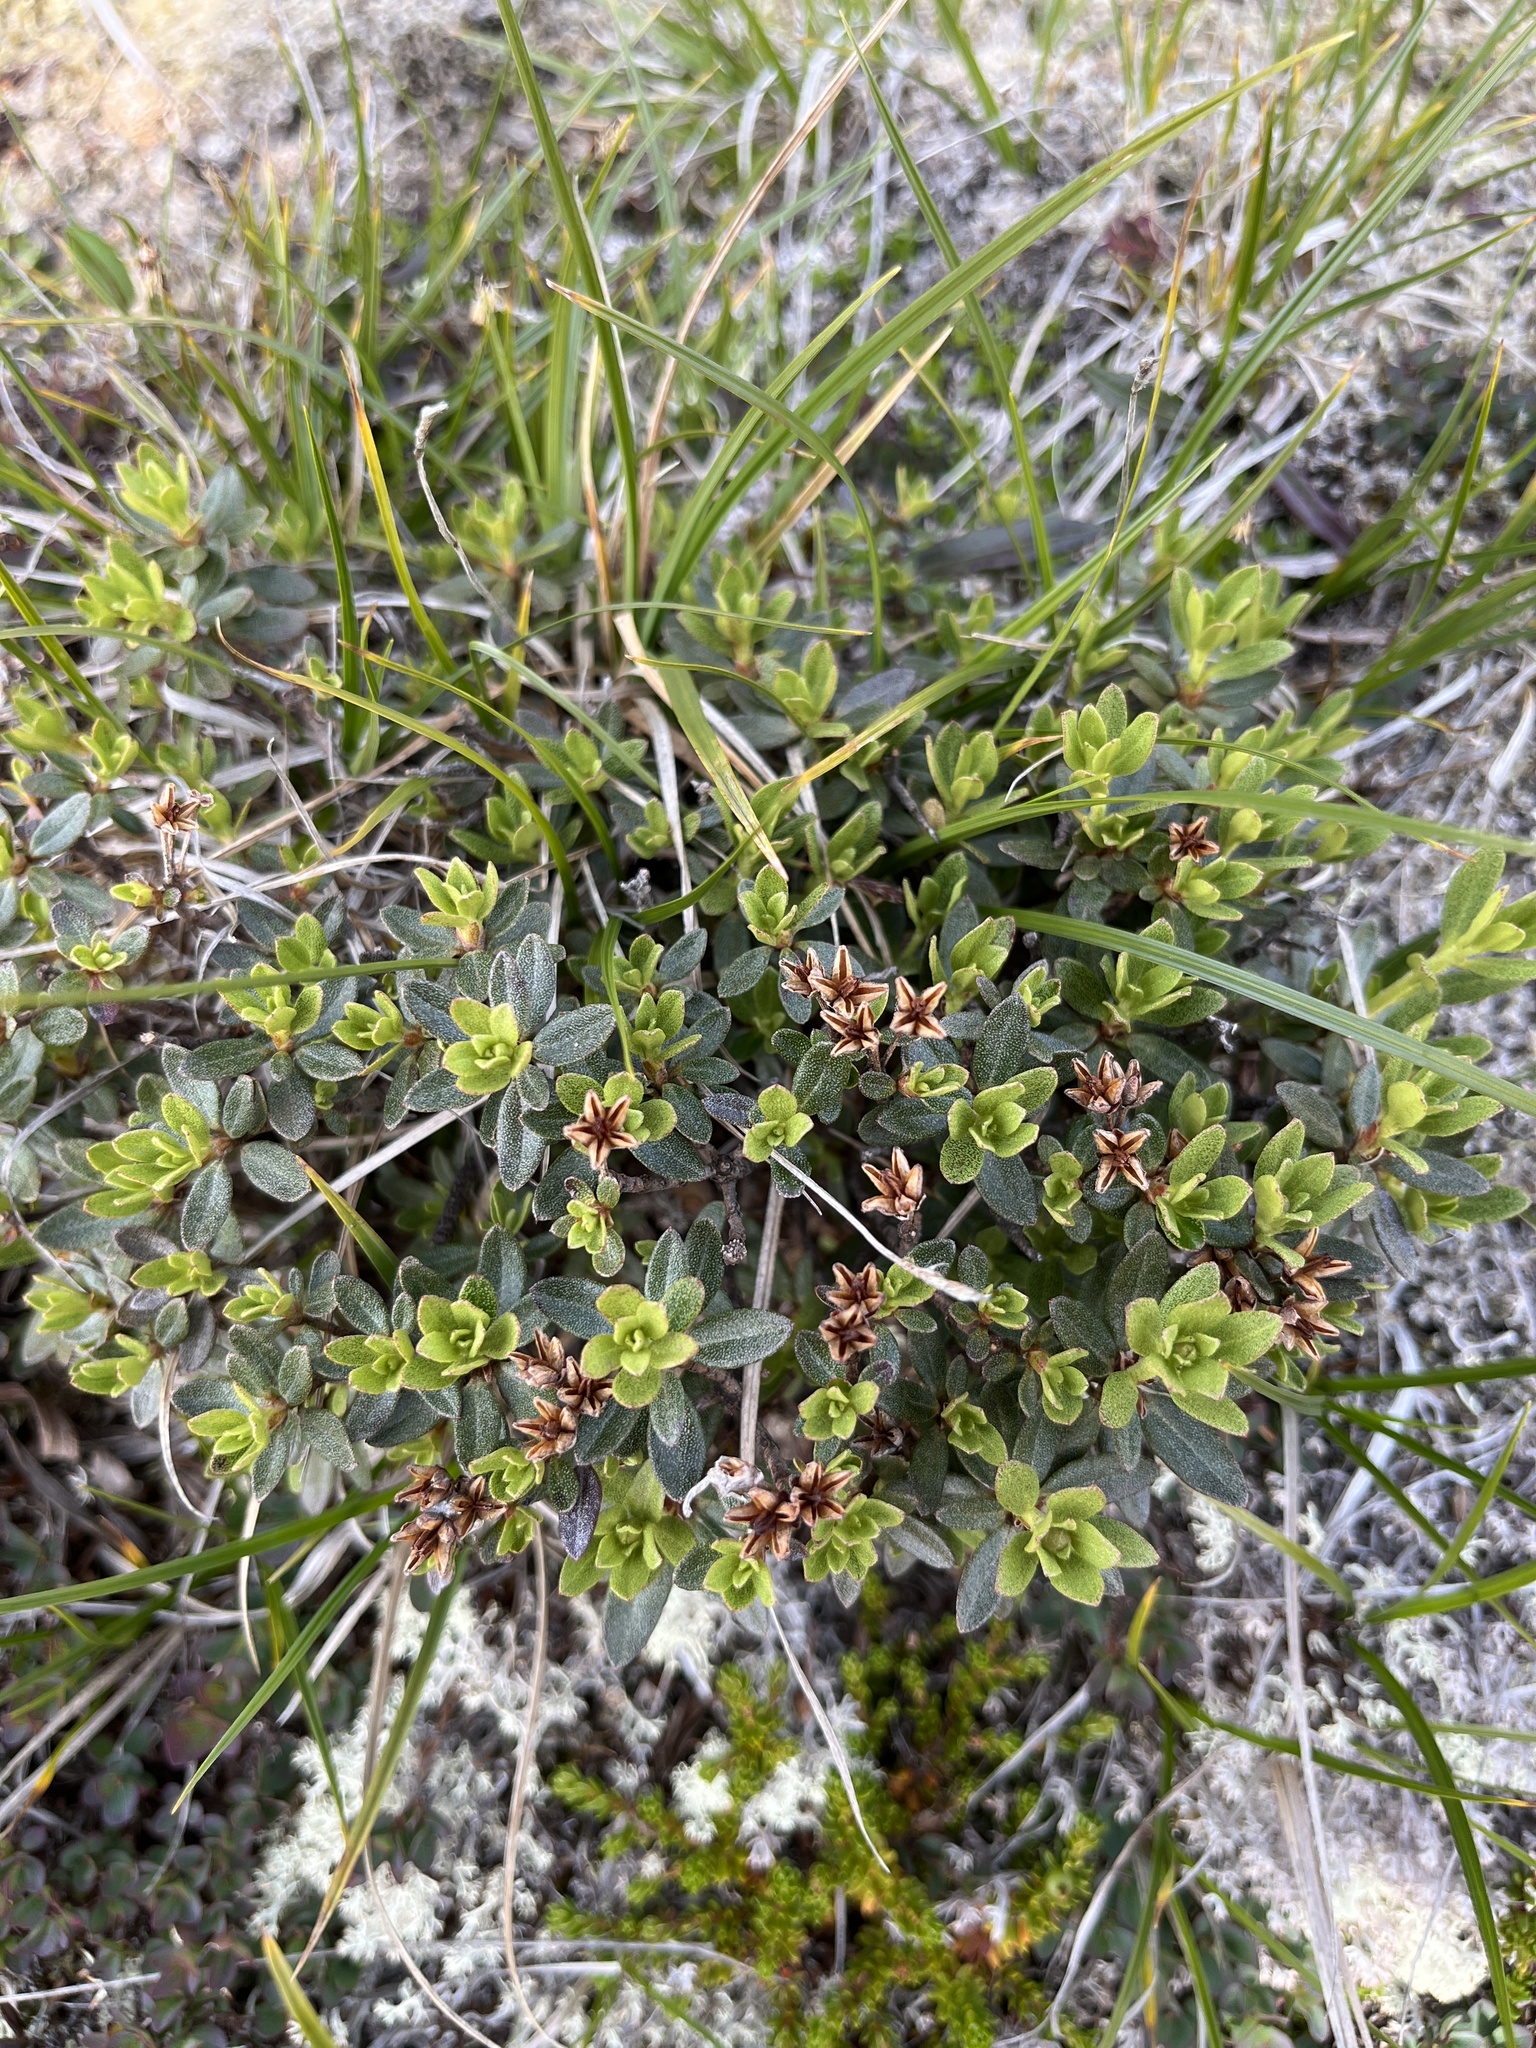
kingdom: Plantae
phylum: Tracheophyta
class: Magnoliopsida
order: Ericales
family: Ericaceae
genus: Rhododendron
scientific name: Rhododendron lapponicum
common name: Lapland rhododendron
